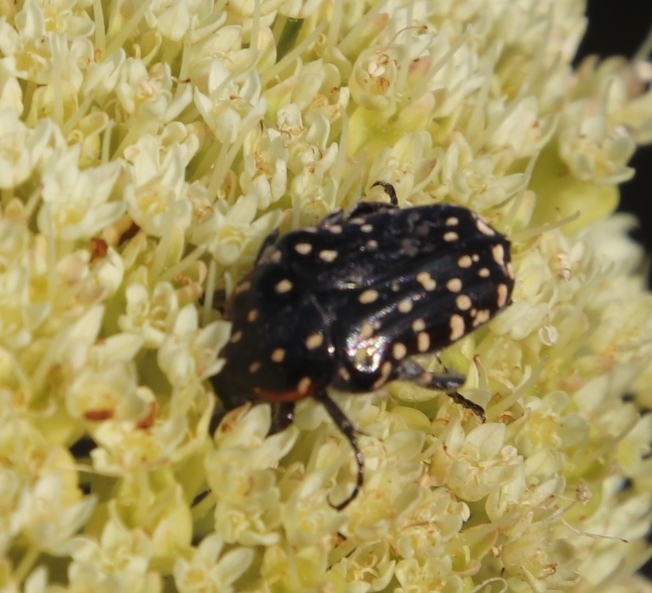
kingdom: Animalia
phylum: Arthropoda
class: Insecta
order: Coleoptera
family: Scarabaeidae
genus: Oxythyrea
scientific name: Oxythyrea
